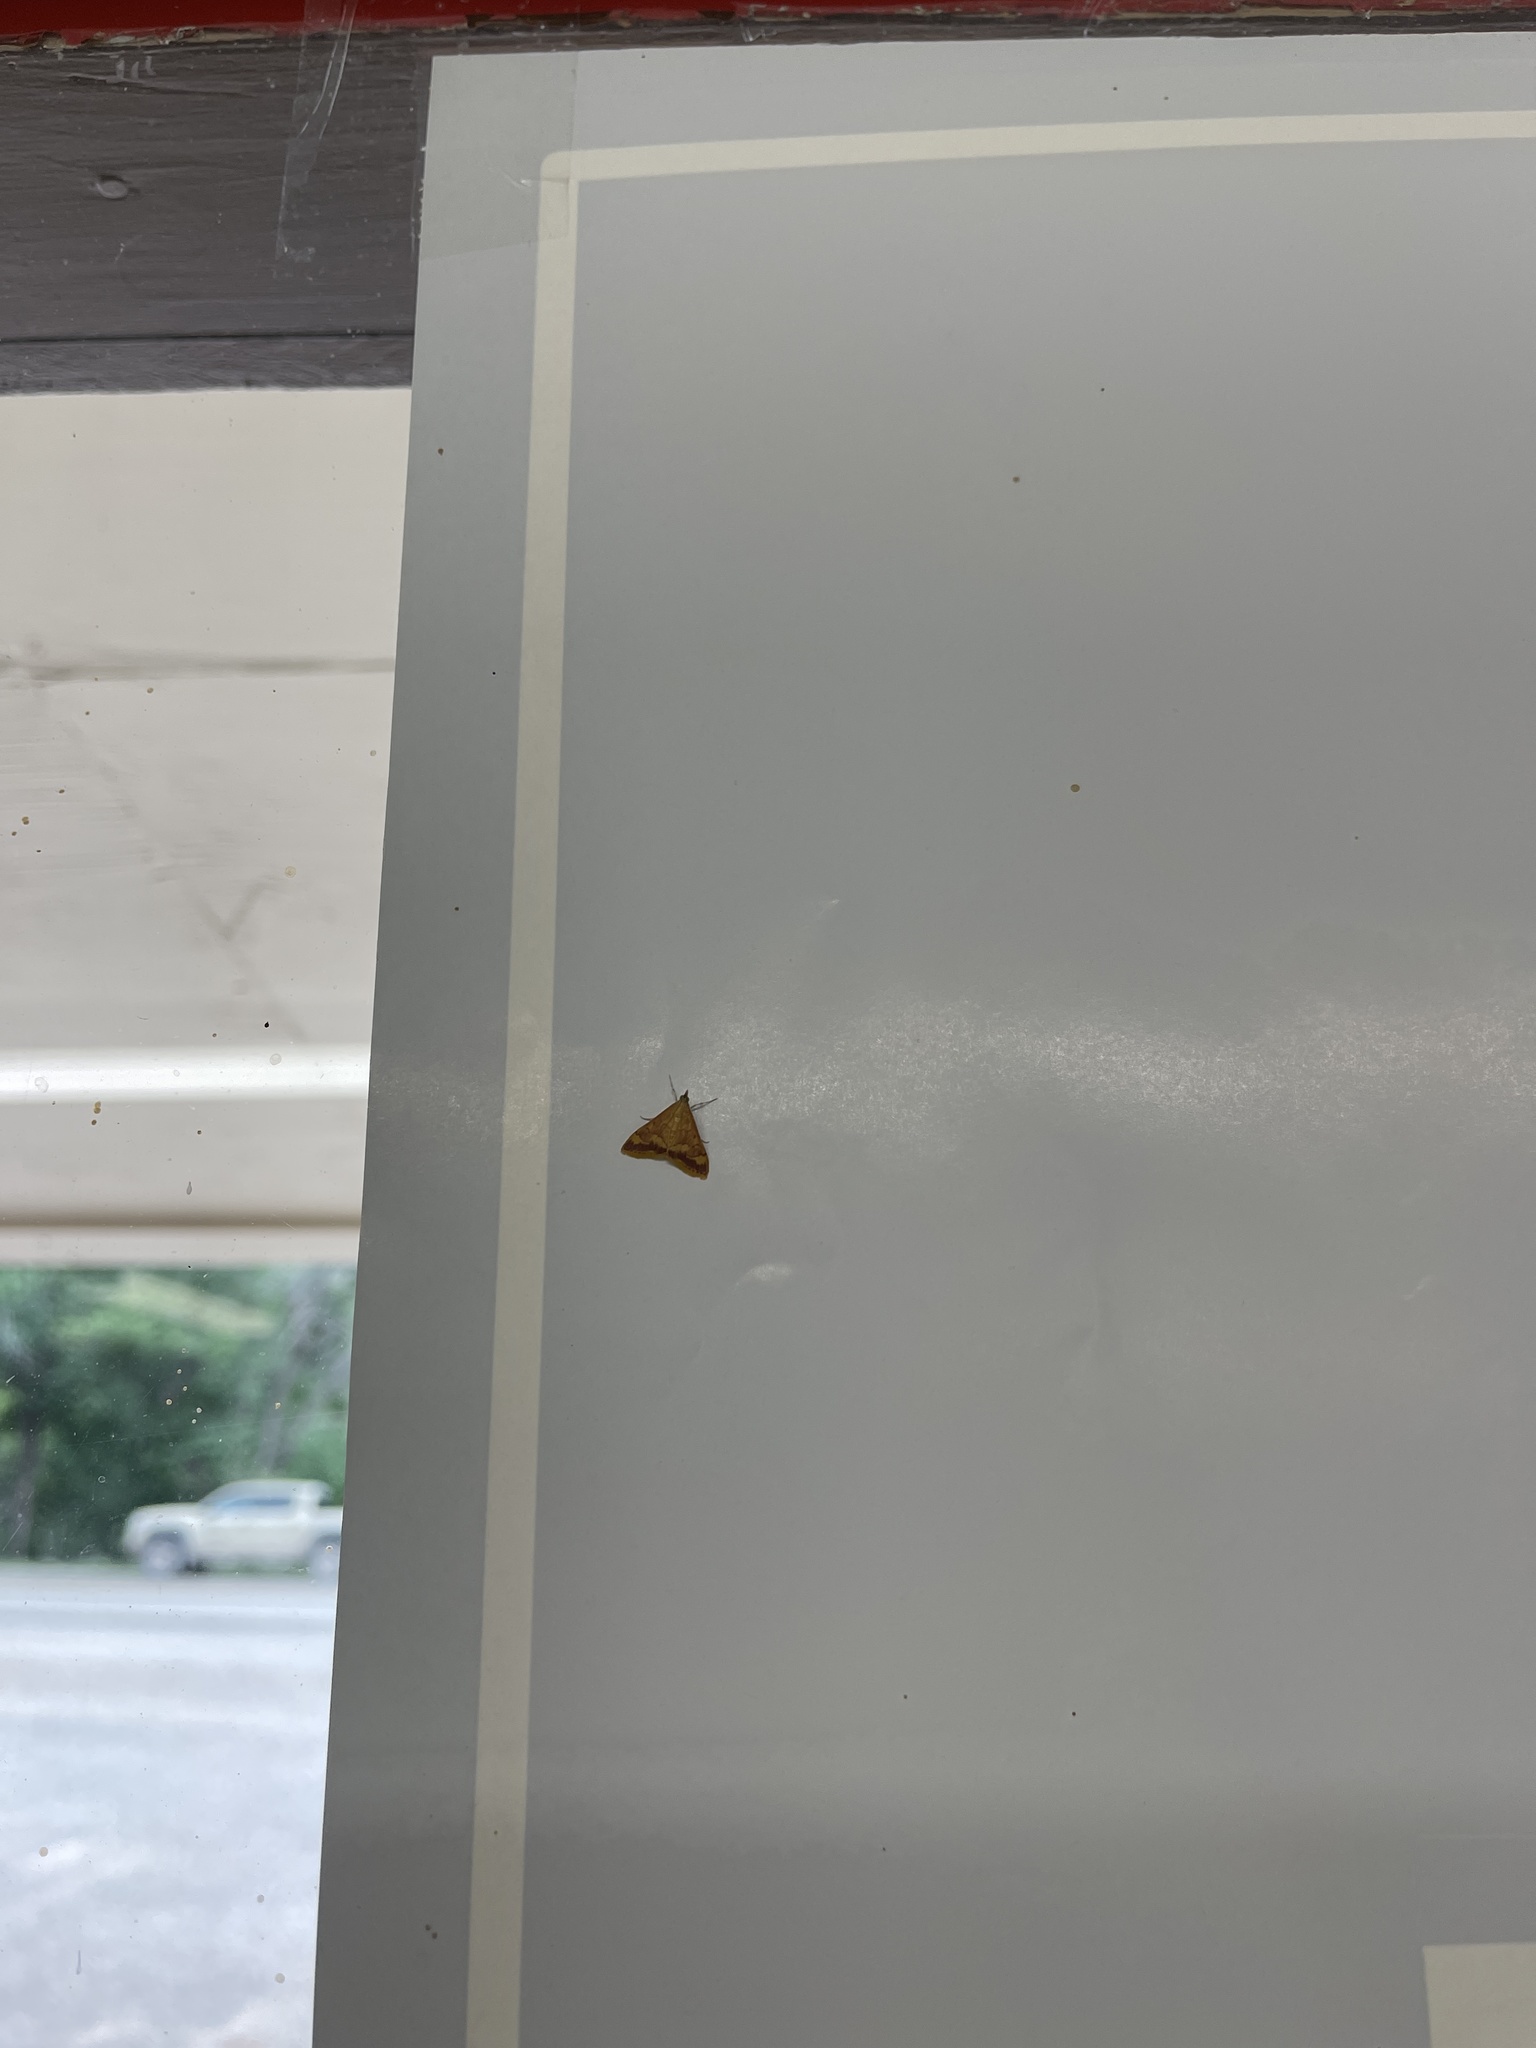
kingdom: Animalia
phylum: Arthropoda
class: Insecta
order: Lepidoptera
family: Crambidae
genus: Pyrausta
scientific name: Pyrausta pseudonythesalis
